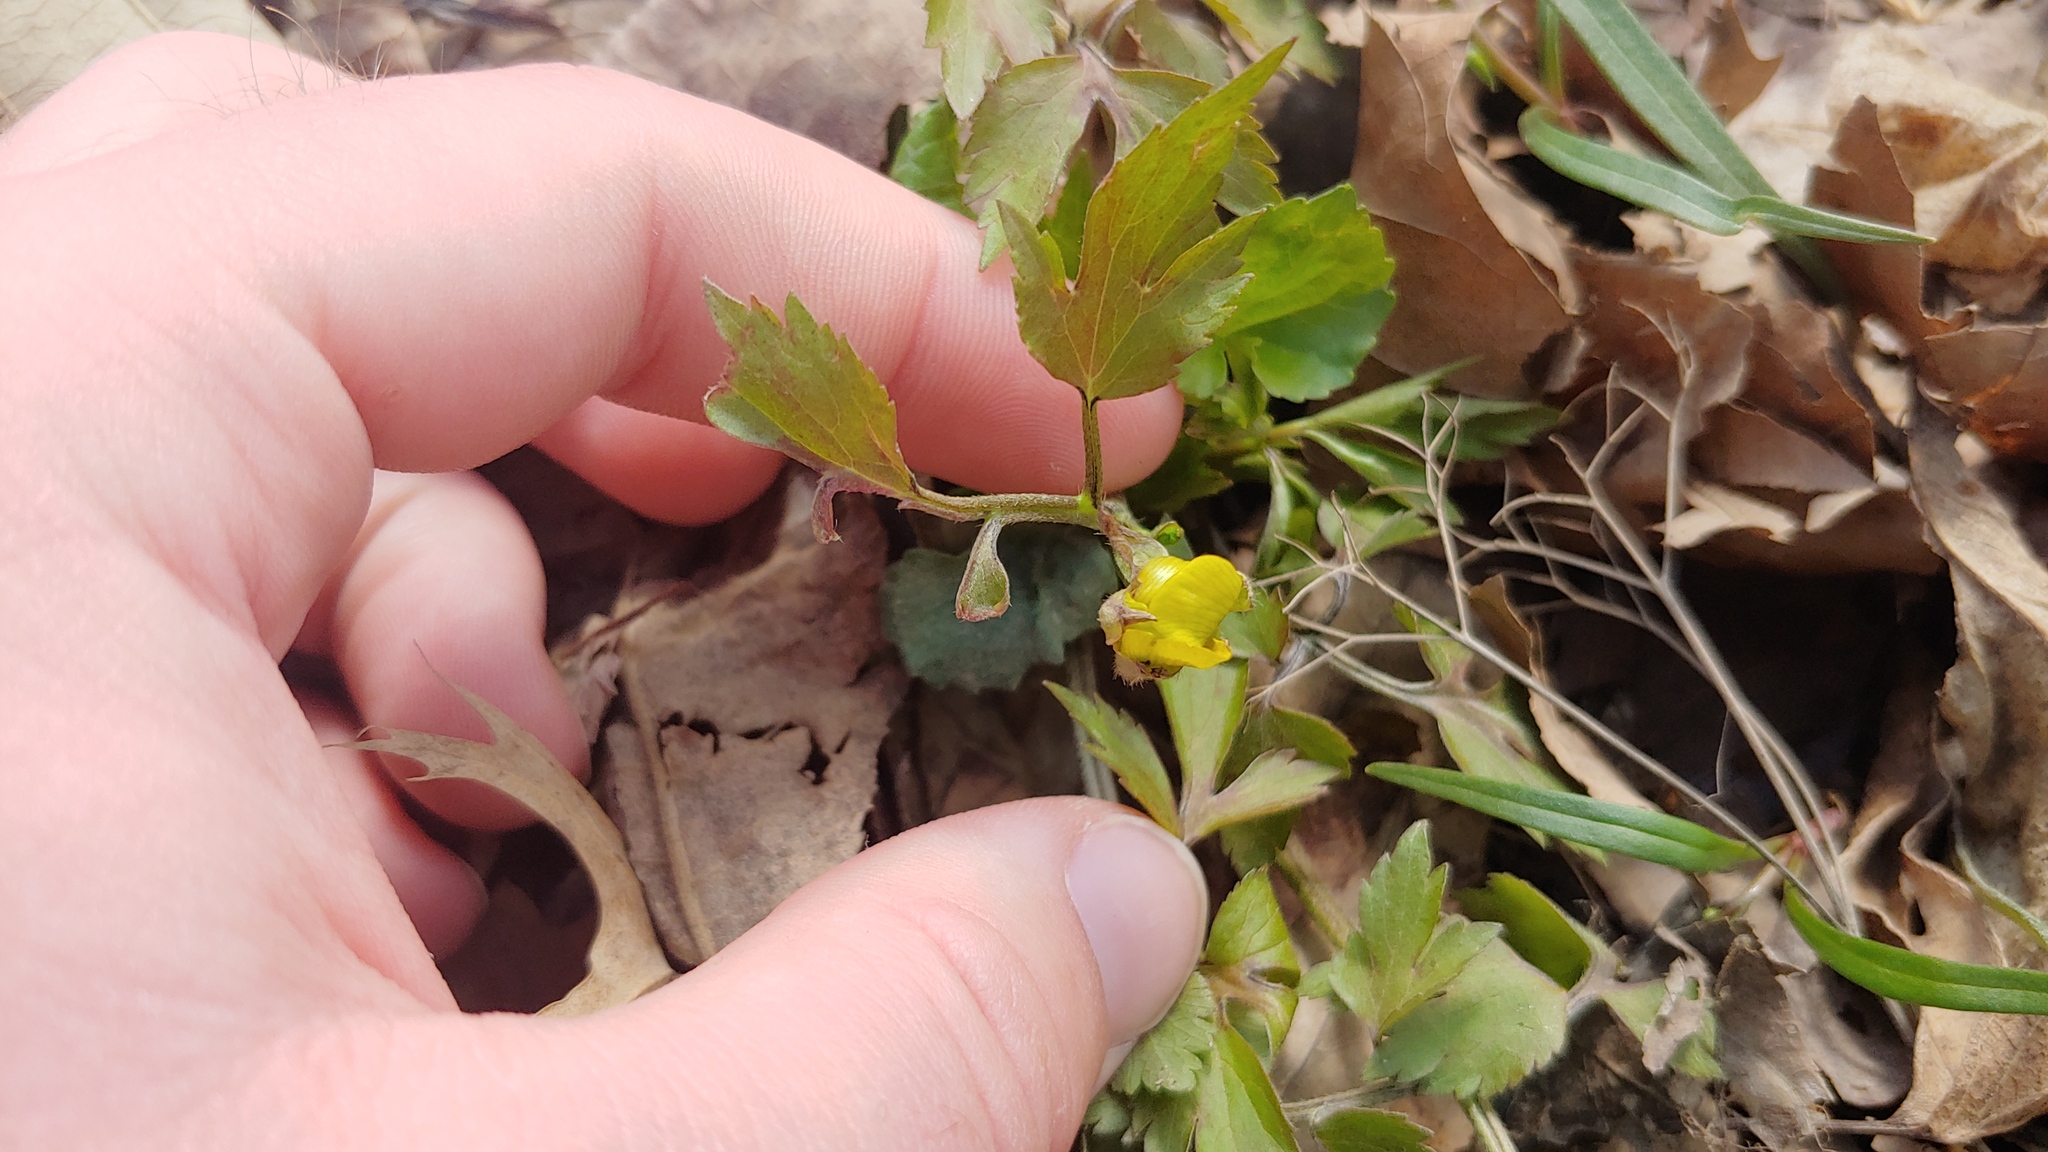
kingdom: Plantae
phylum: Tracheophyta
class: Magnoliopsida
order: Ranunculales
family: Ranunculaceae
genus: Ranunculus
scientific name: Ranunculus hispidus
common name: Bristly buttercup
